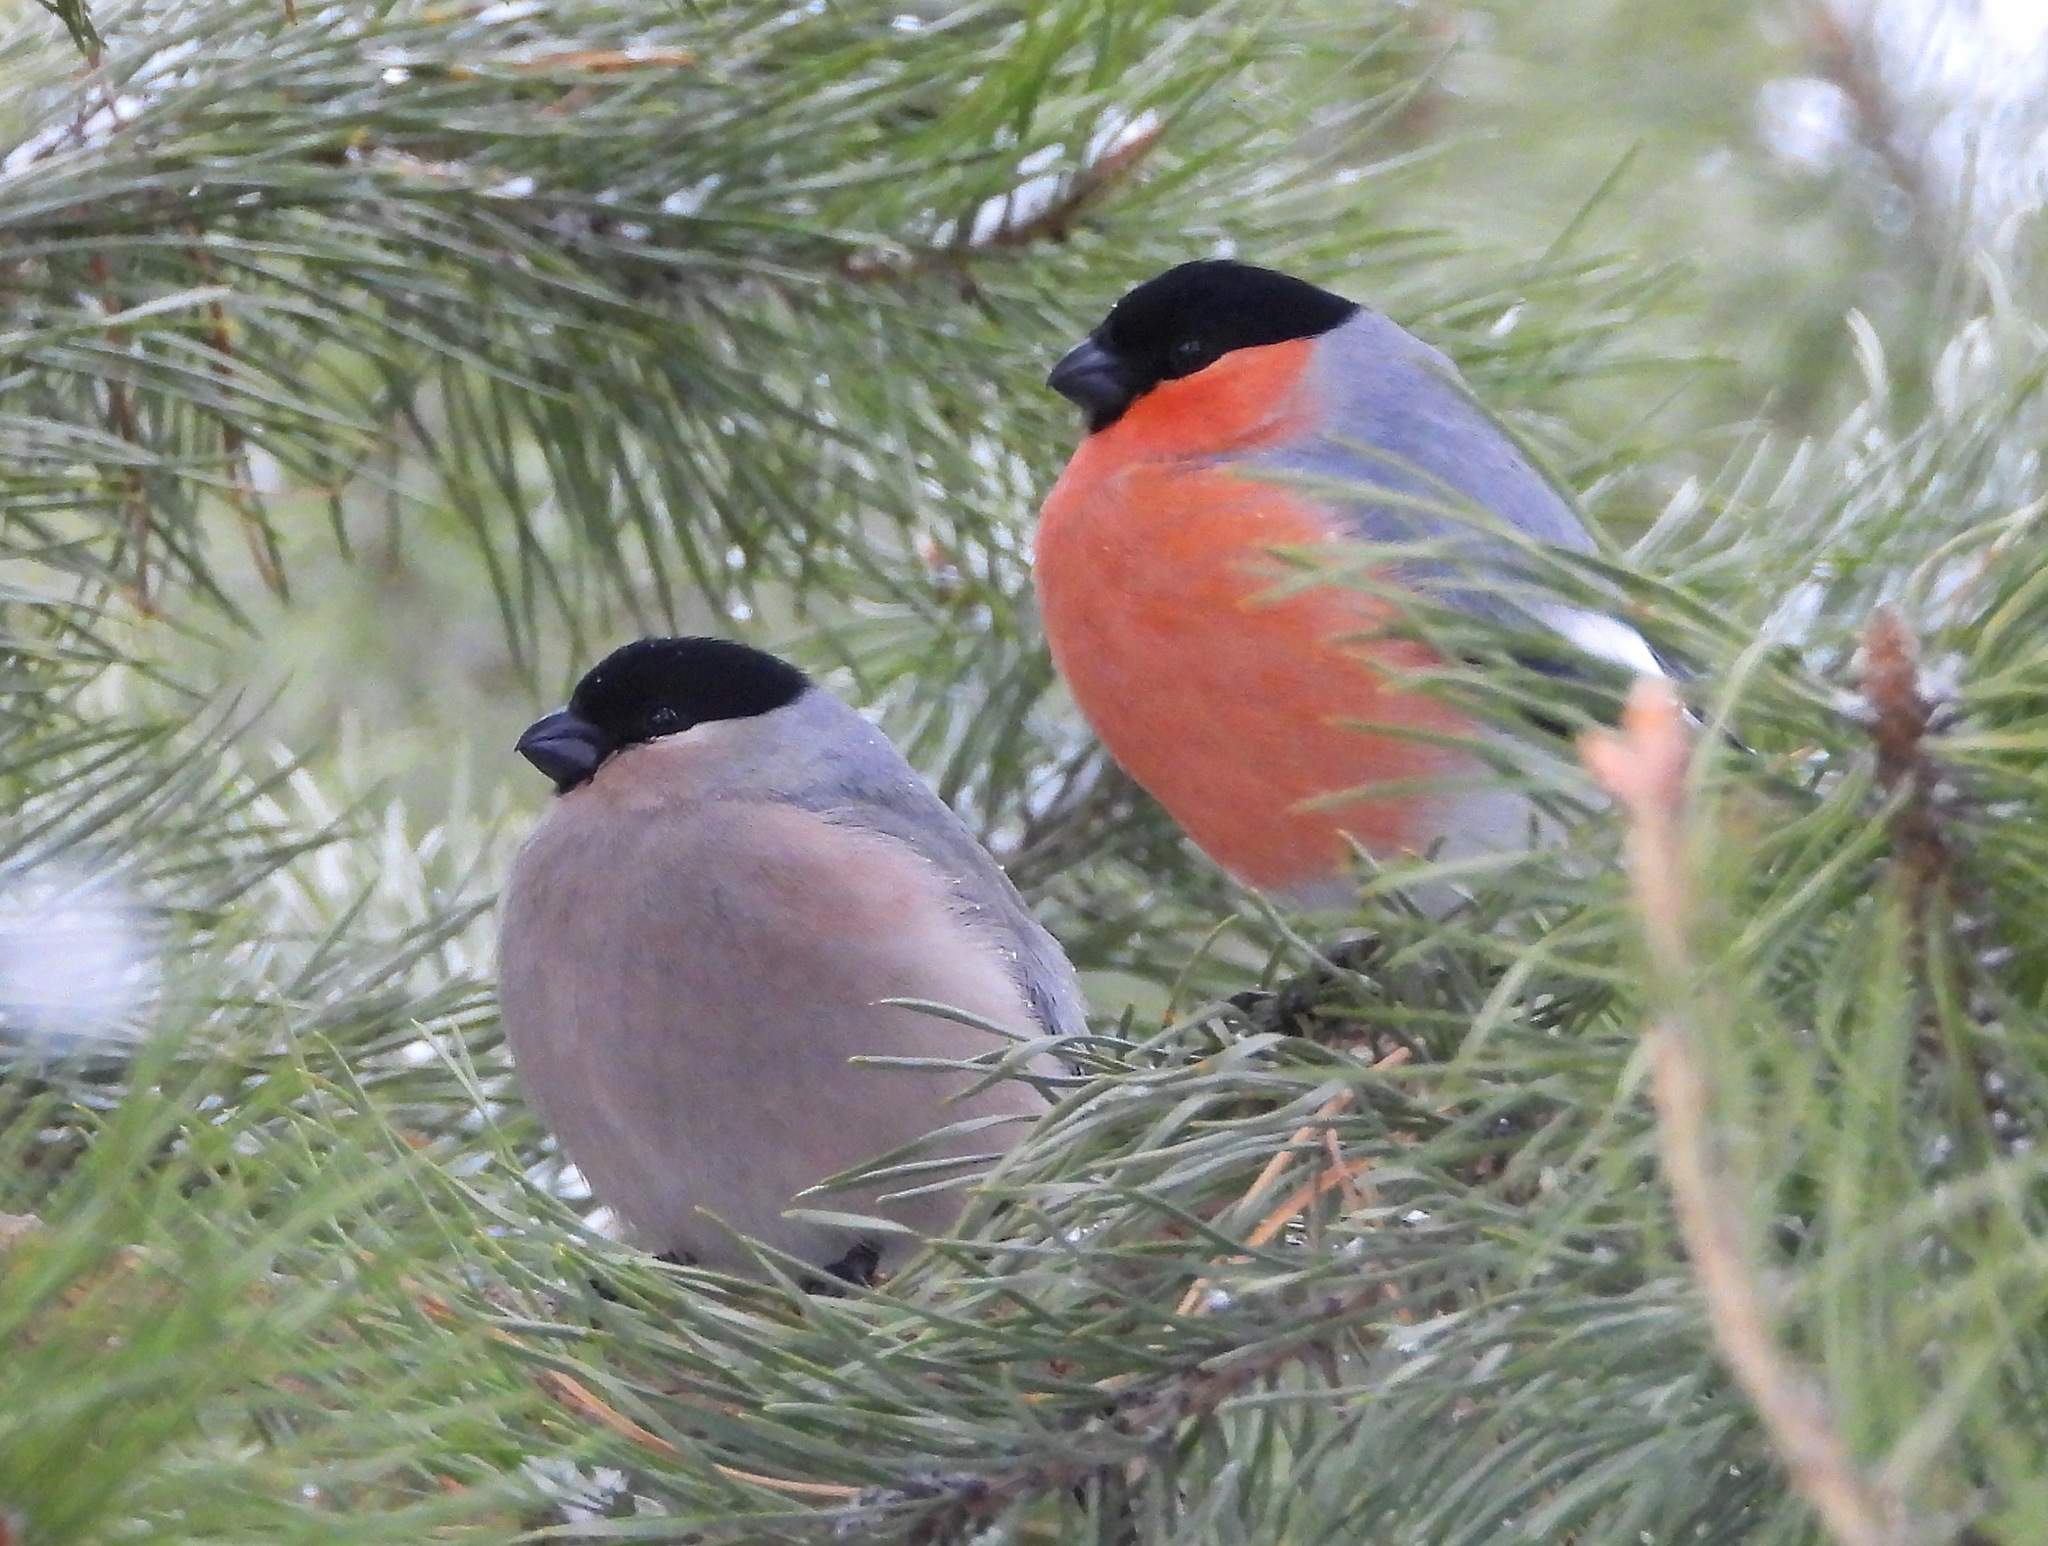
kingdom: Animalia
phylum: Chordata
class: Aves
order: Passeriformes
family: Fringillidae
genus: Pyrrhula
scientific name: Pyrrhula pyrrhula
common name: Eurasian bullfinch
